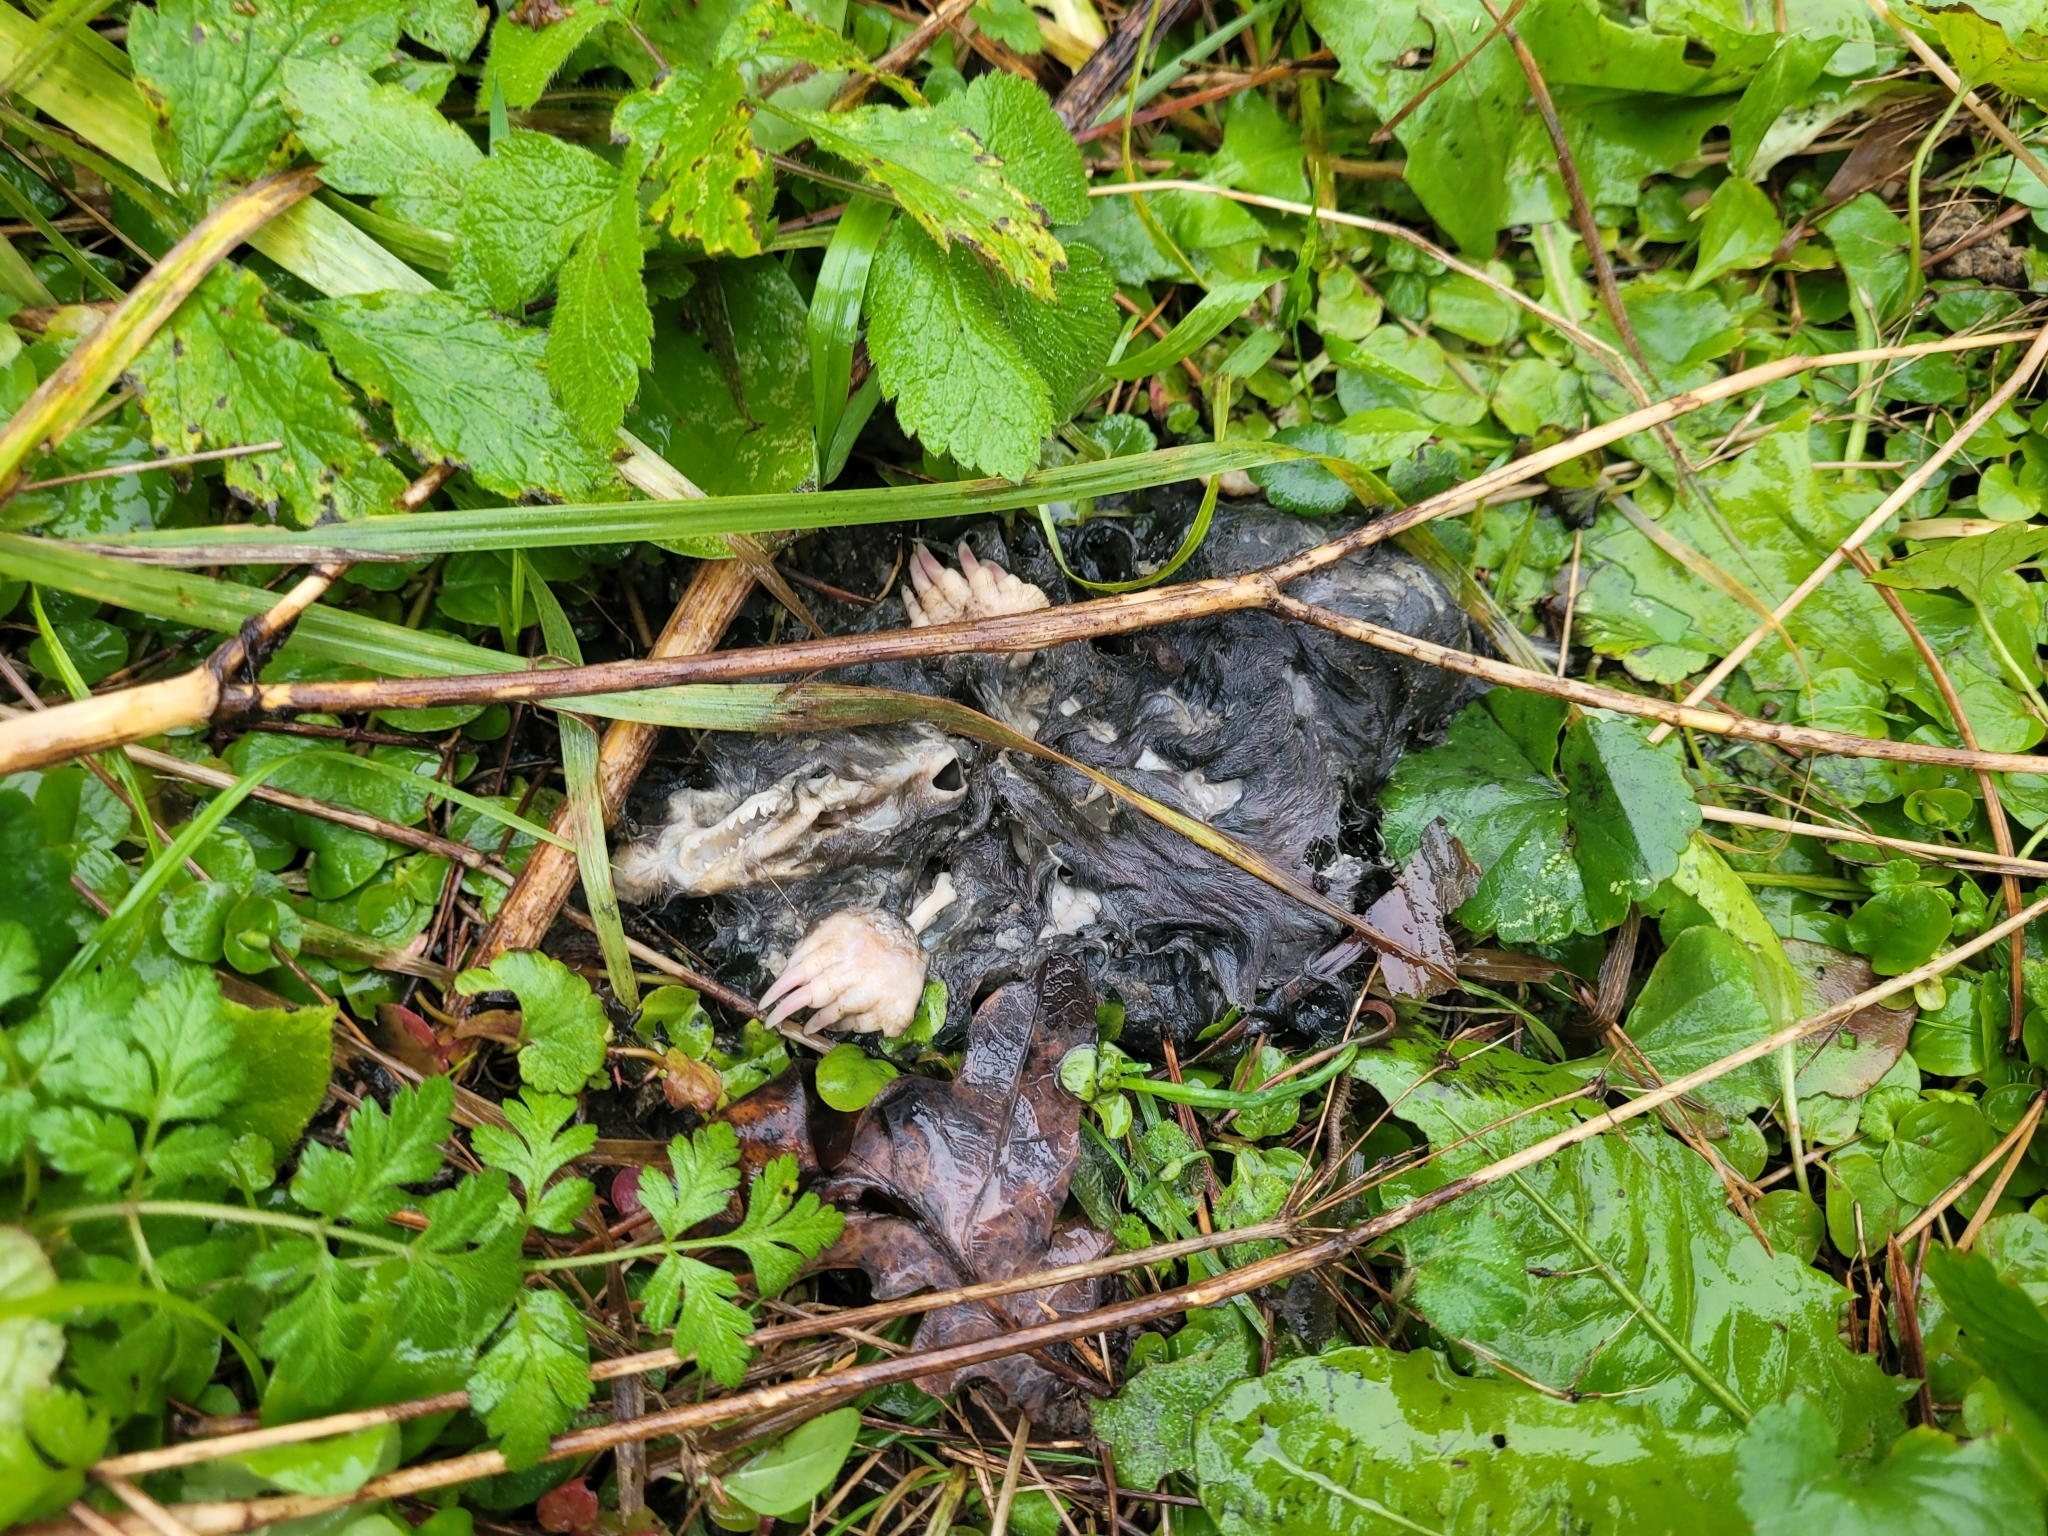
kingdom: Animalia
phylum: Chordata
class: Mammalia
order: Soricomorpha
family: Talpidae
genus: Talpa
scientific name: Talpa europaea
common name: European mole
